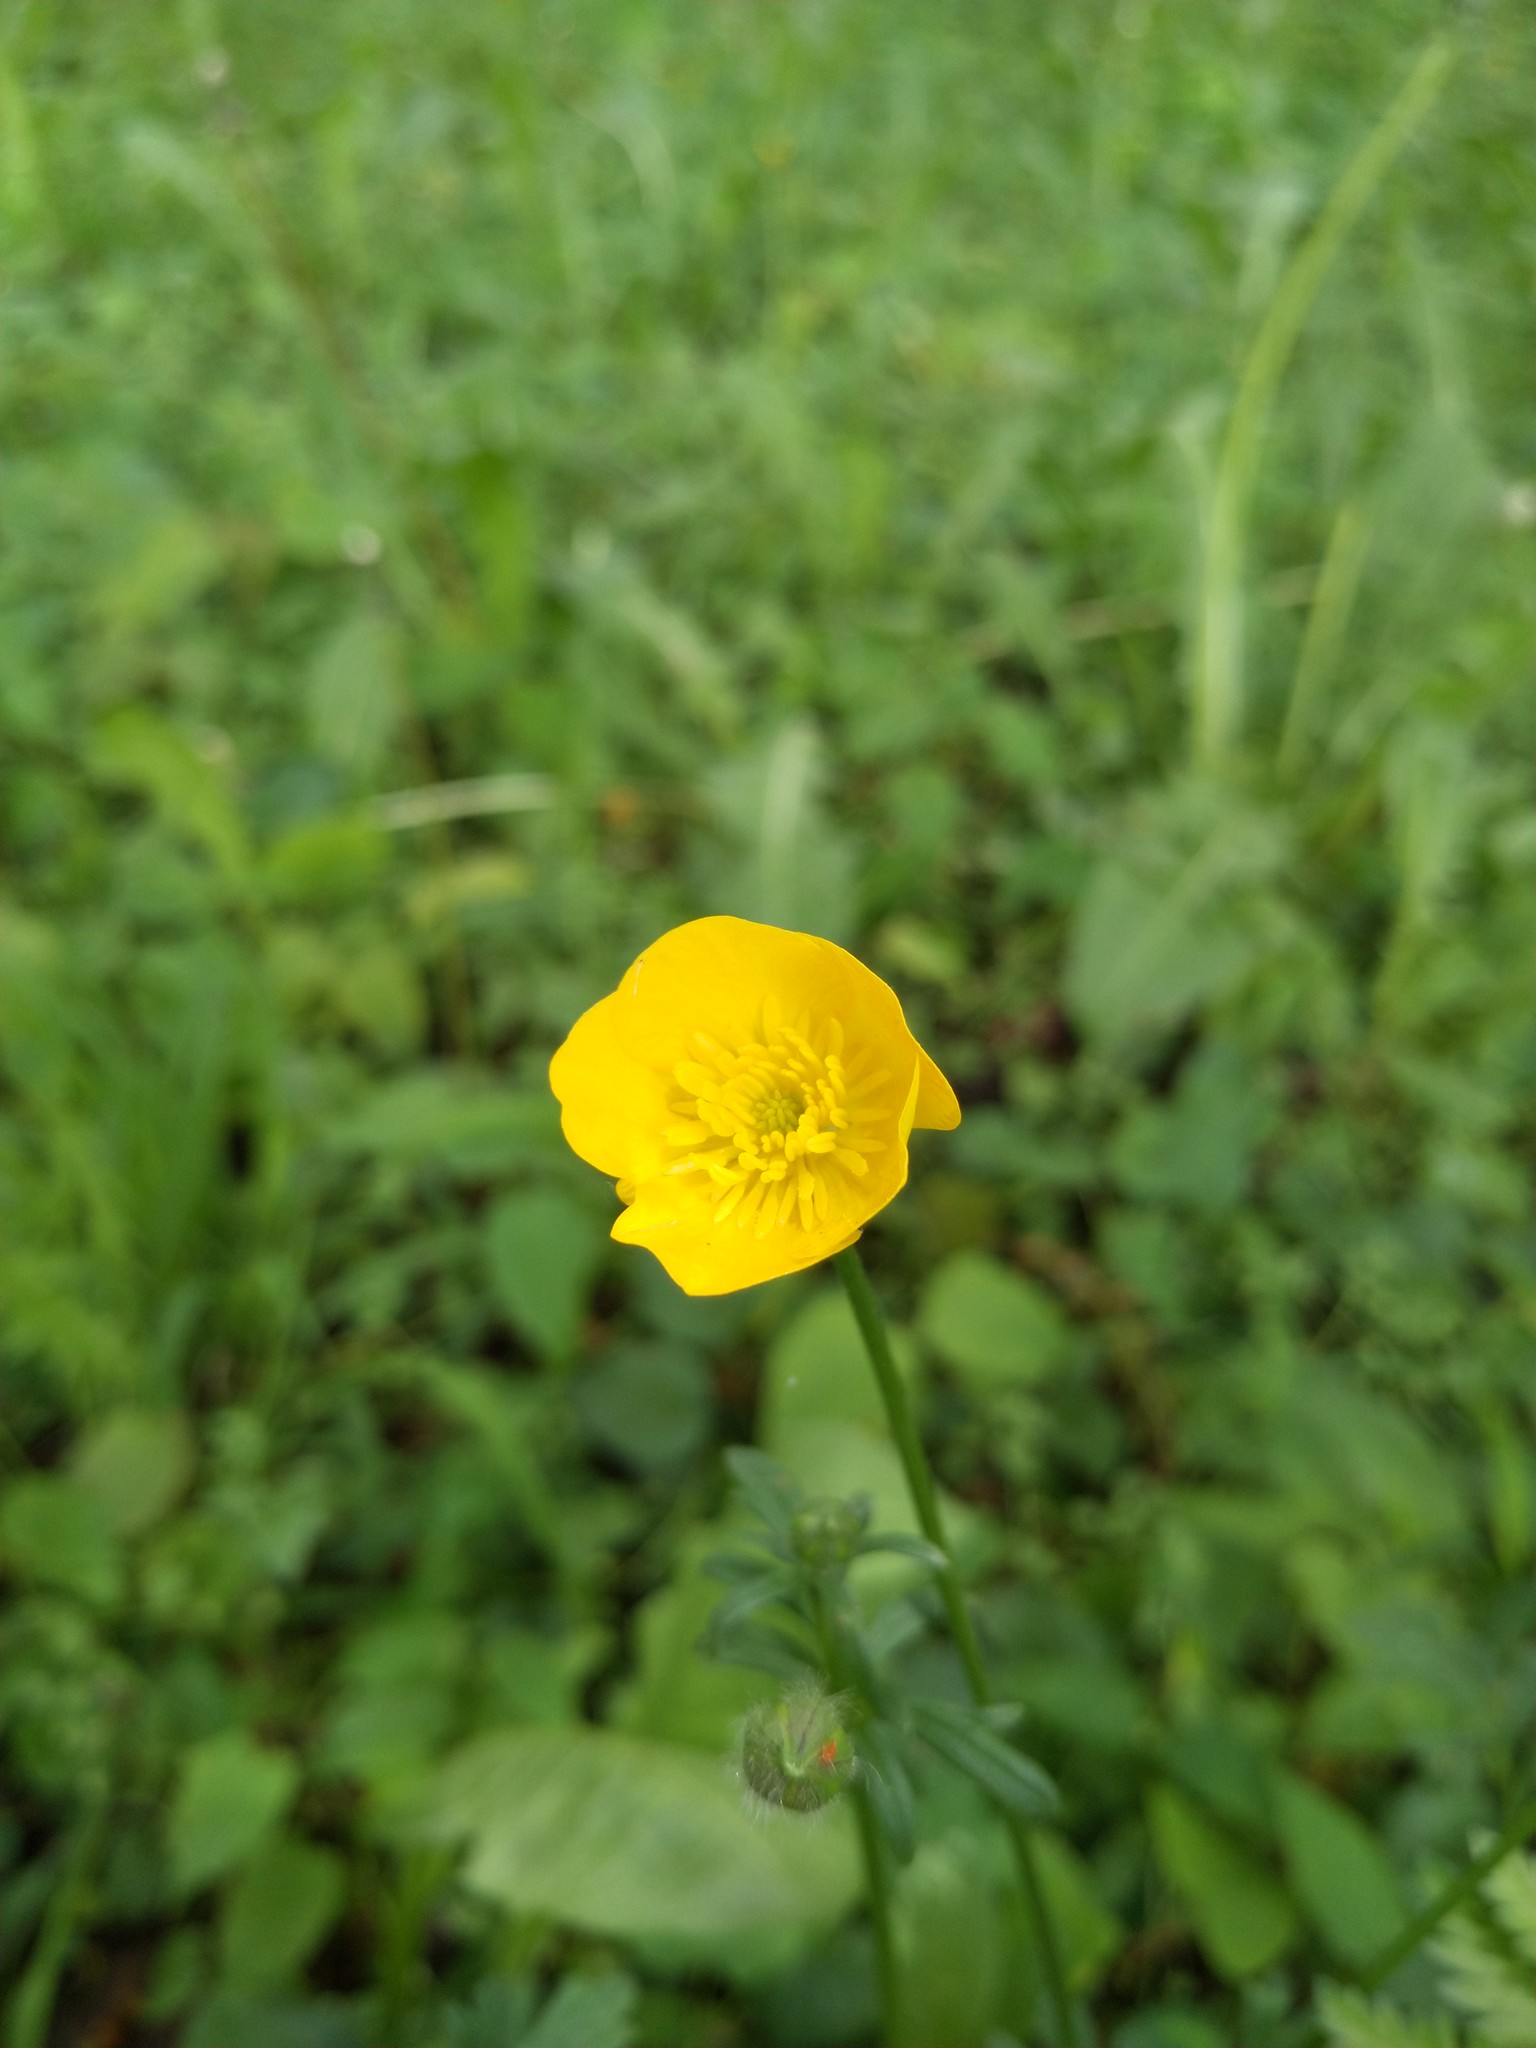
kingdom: Plantae
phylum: Tracheophyta
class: Magnoliopsida
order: Ranunculales
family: Ranunculaceae
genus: Ranunculus
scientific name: Ranunculus bulbosus
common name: Bulbous buttercup
